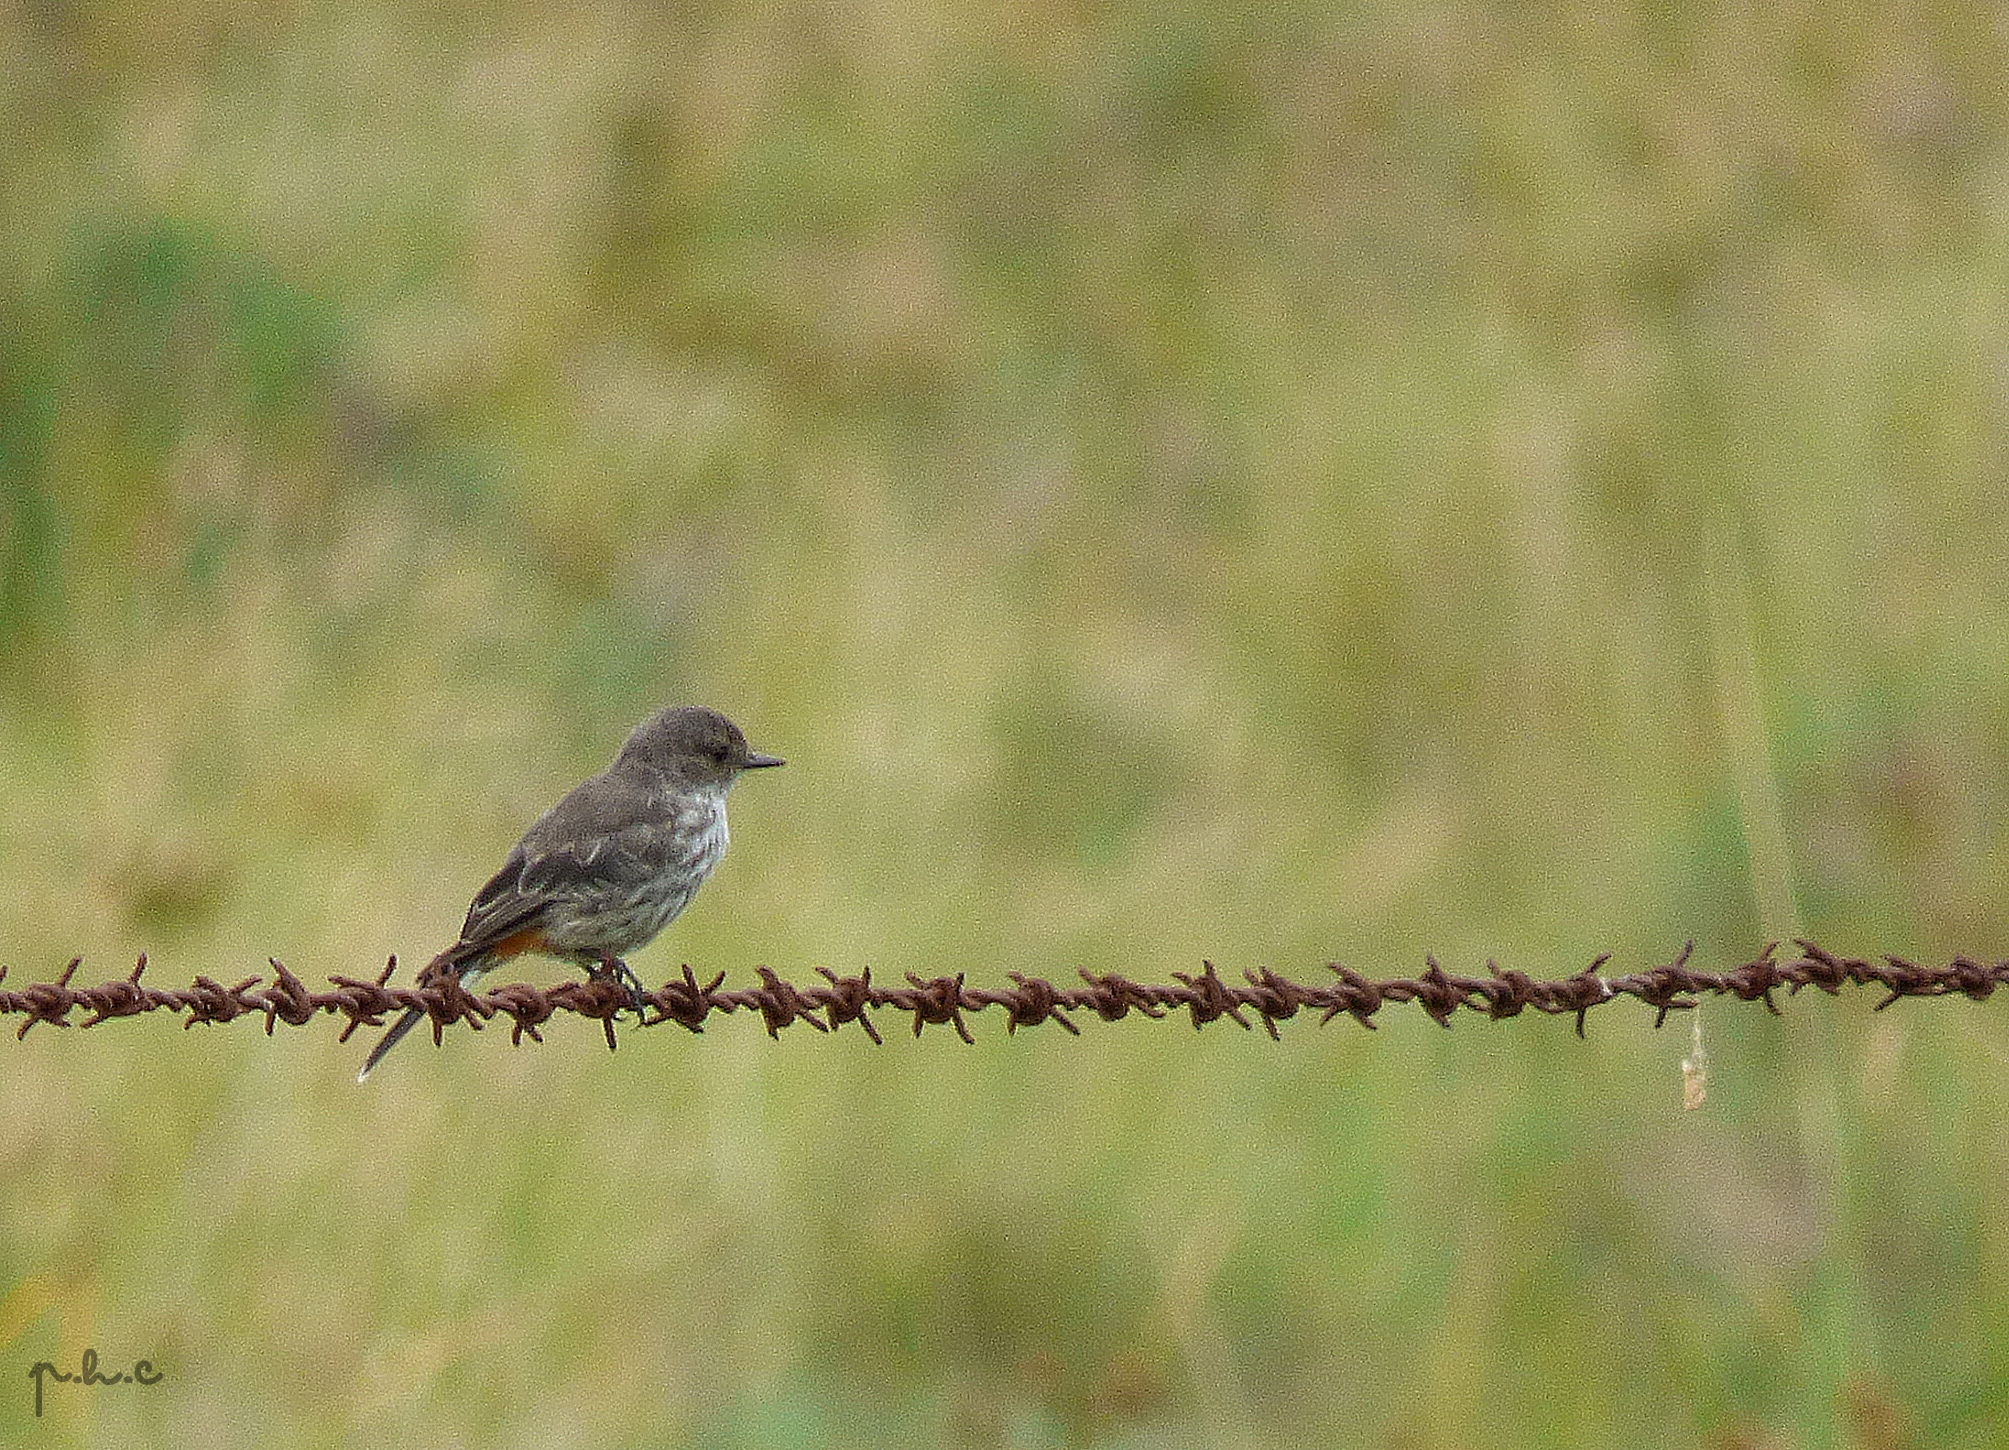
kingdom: Animalia
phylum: Chordata
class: Aves
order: Passeriformes
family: Tyrannidae
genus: Pyrocephalus
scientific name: Pyrocephalus rubinus
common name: Vermilion flycatcher
